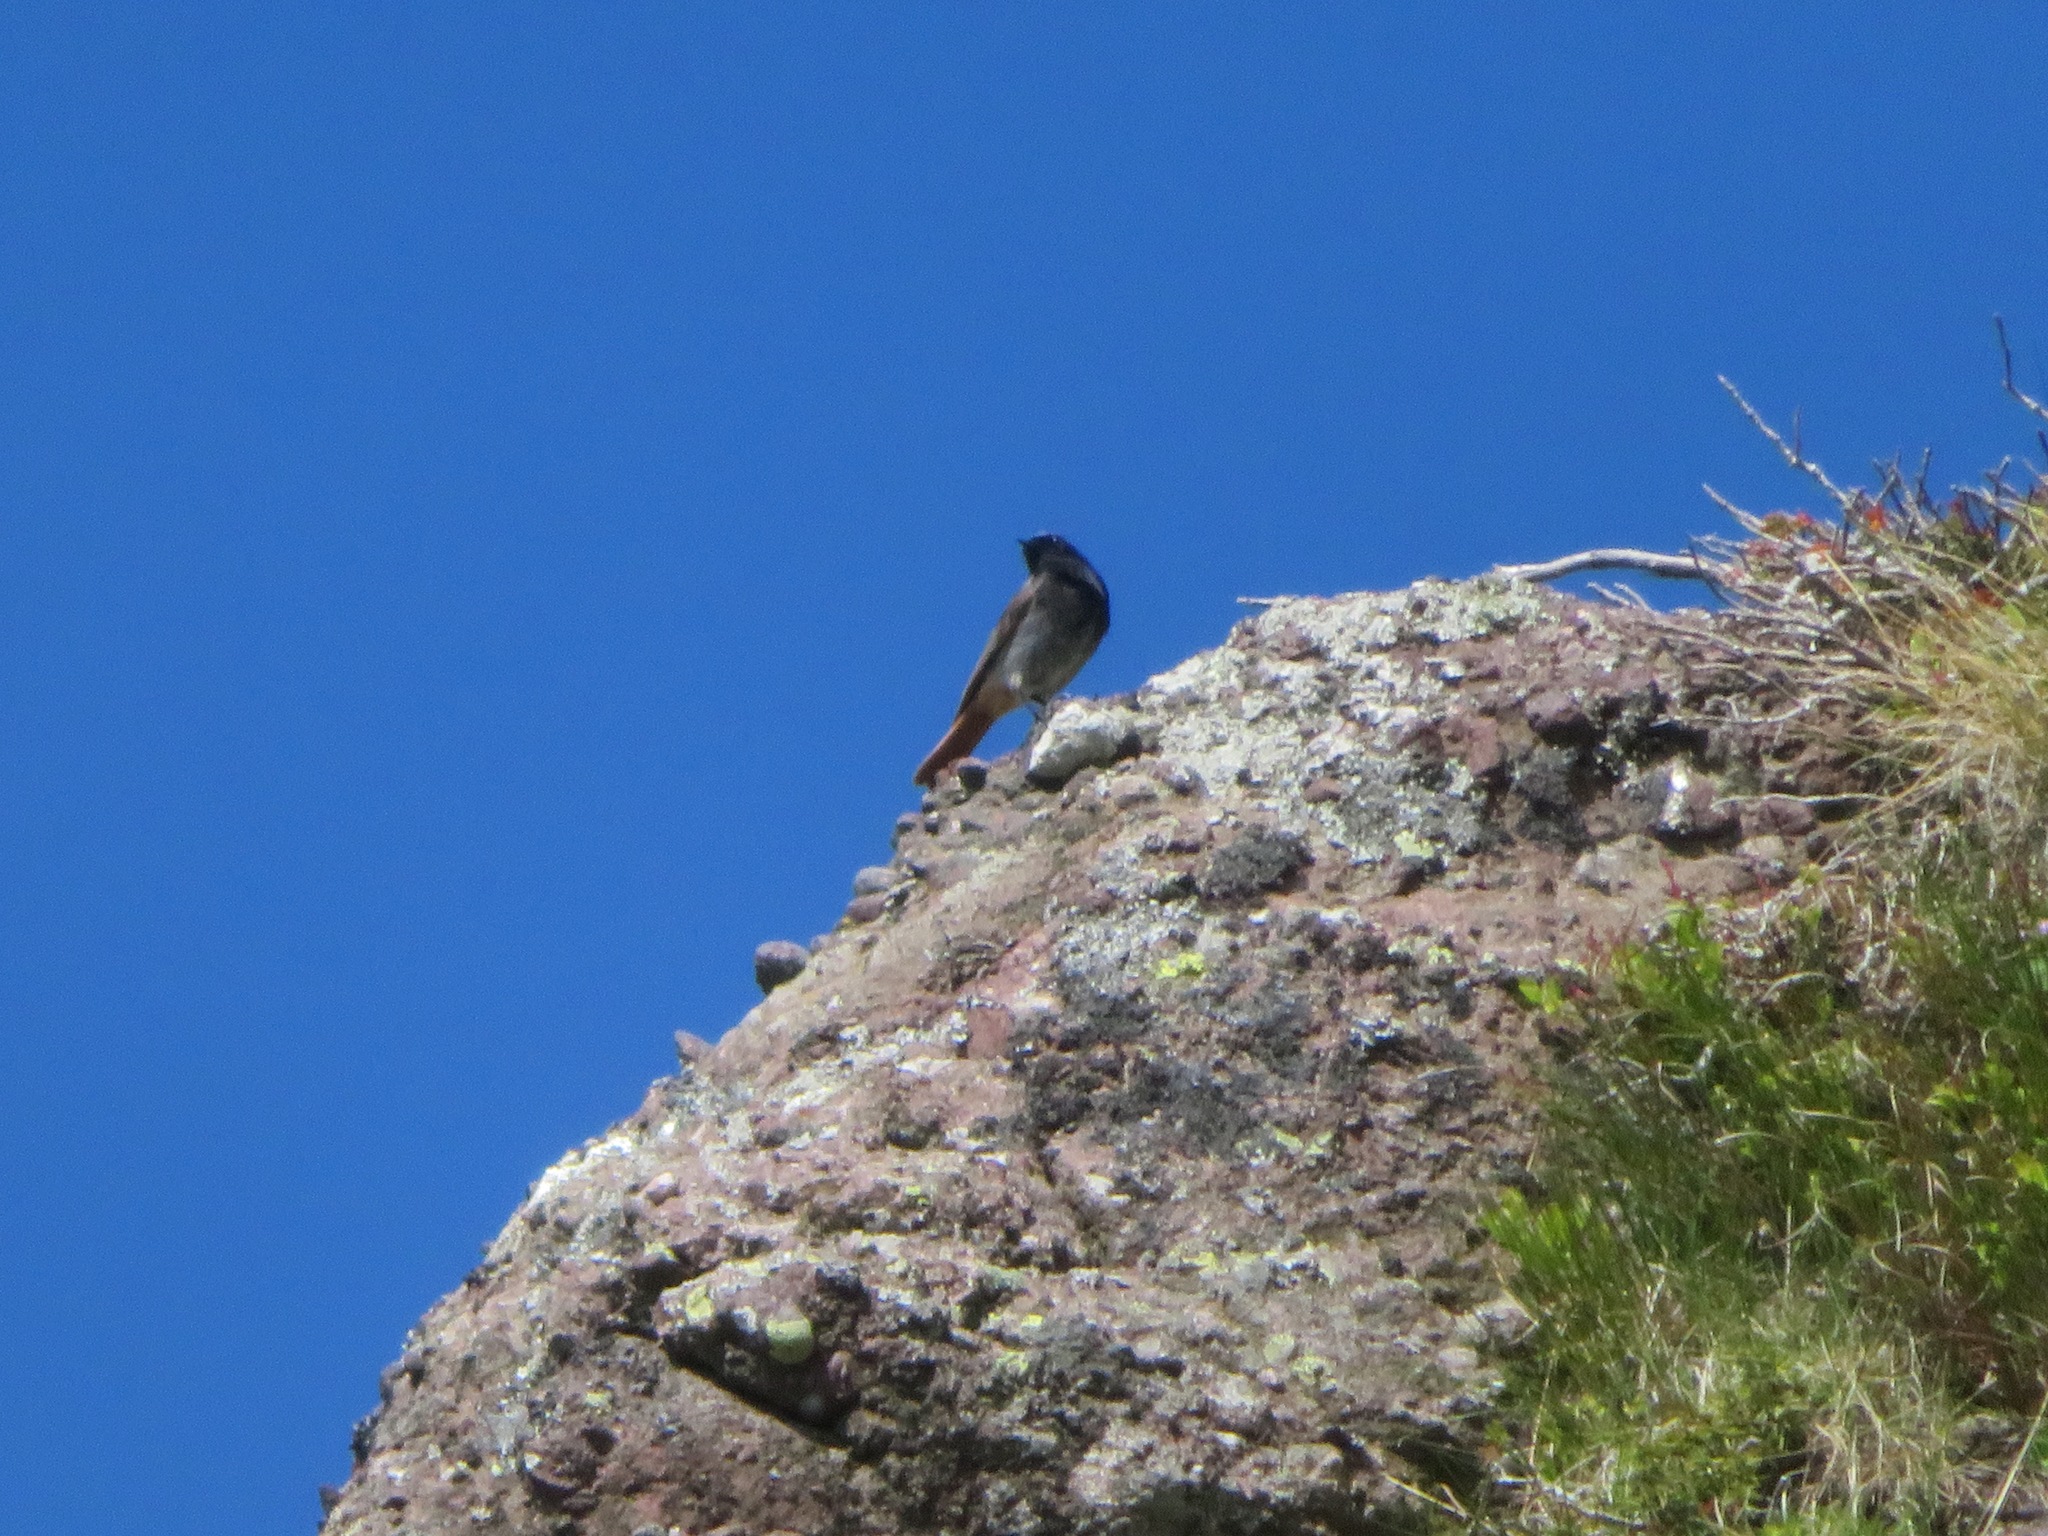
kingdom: Animalia
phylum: Chordata
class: Aves
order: Passeriformes
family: Muscicapidae
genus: Phoenicurus
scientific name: Phoenicurus ochruros
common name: Black redstart
